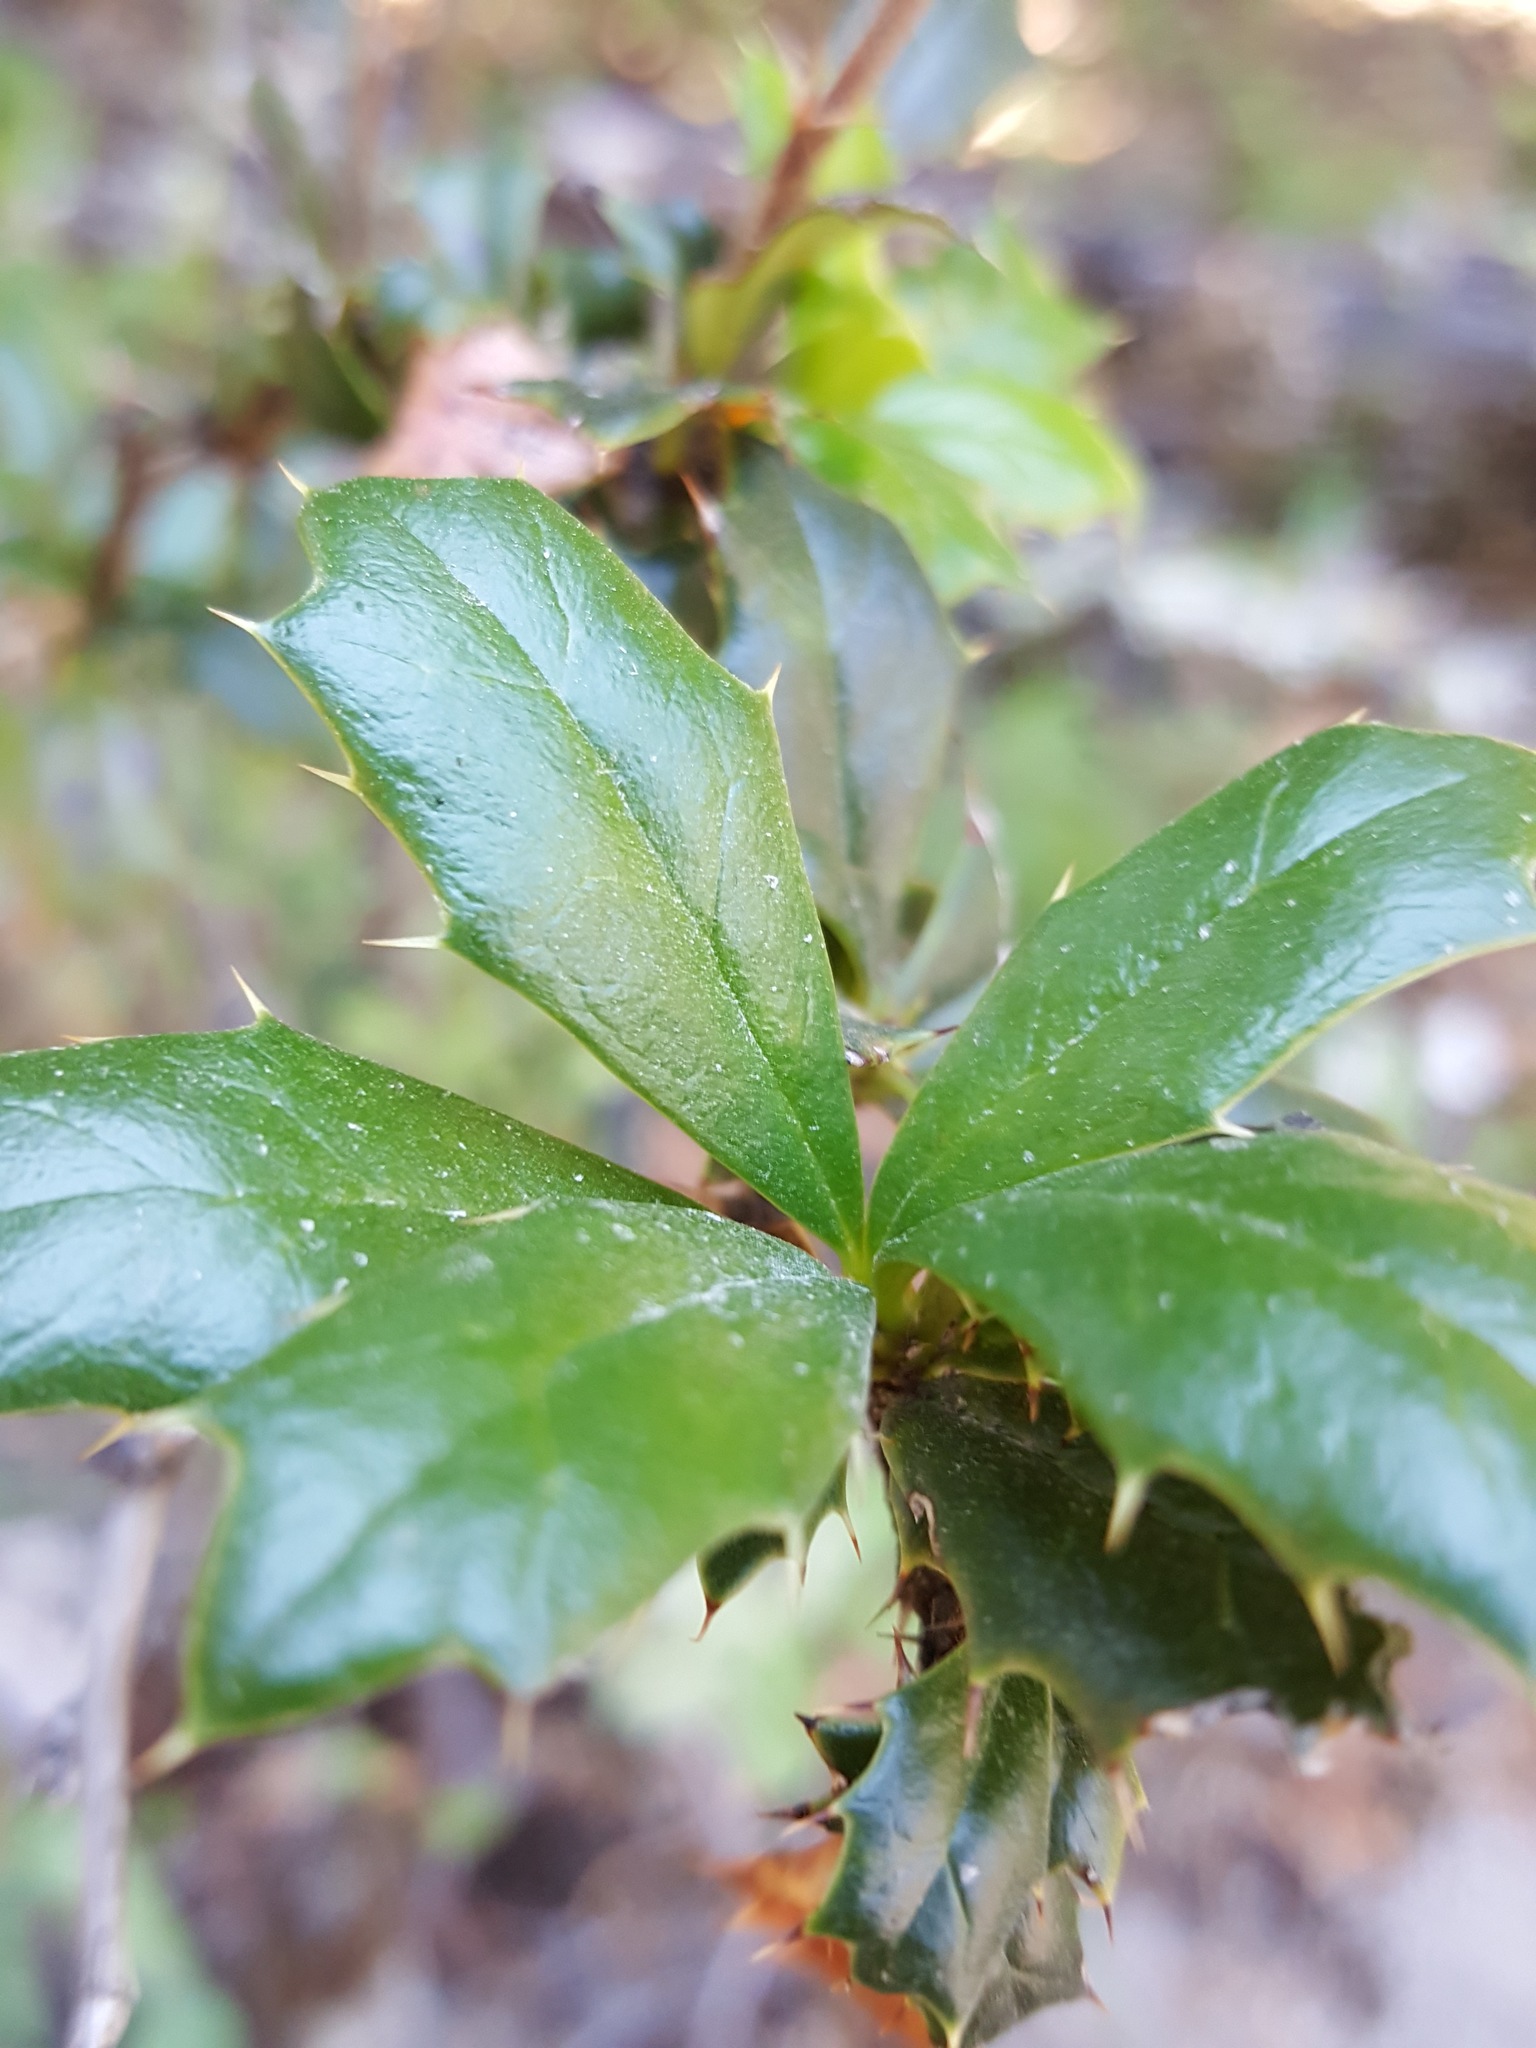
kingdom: Plantae
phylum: Tracheophyta
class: Magnoliopsida
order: Ranunculales
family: Berberidaceae
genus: Berberis
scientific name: Berberis darwinii
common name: Darwin's barberry
